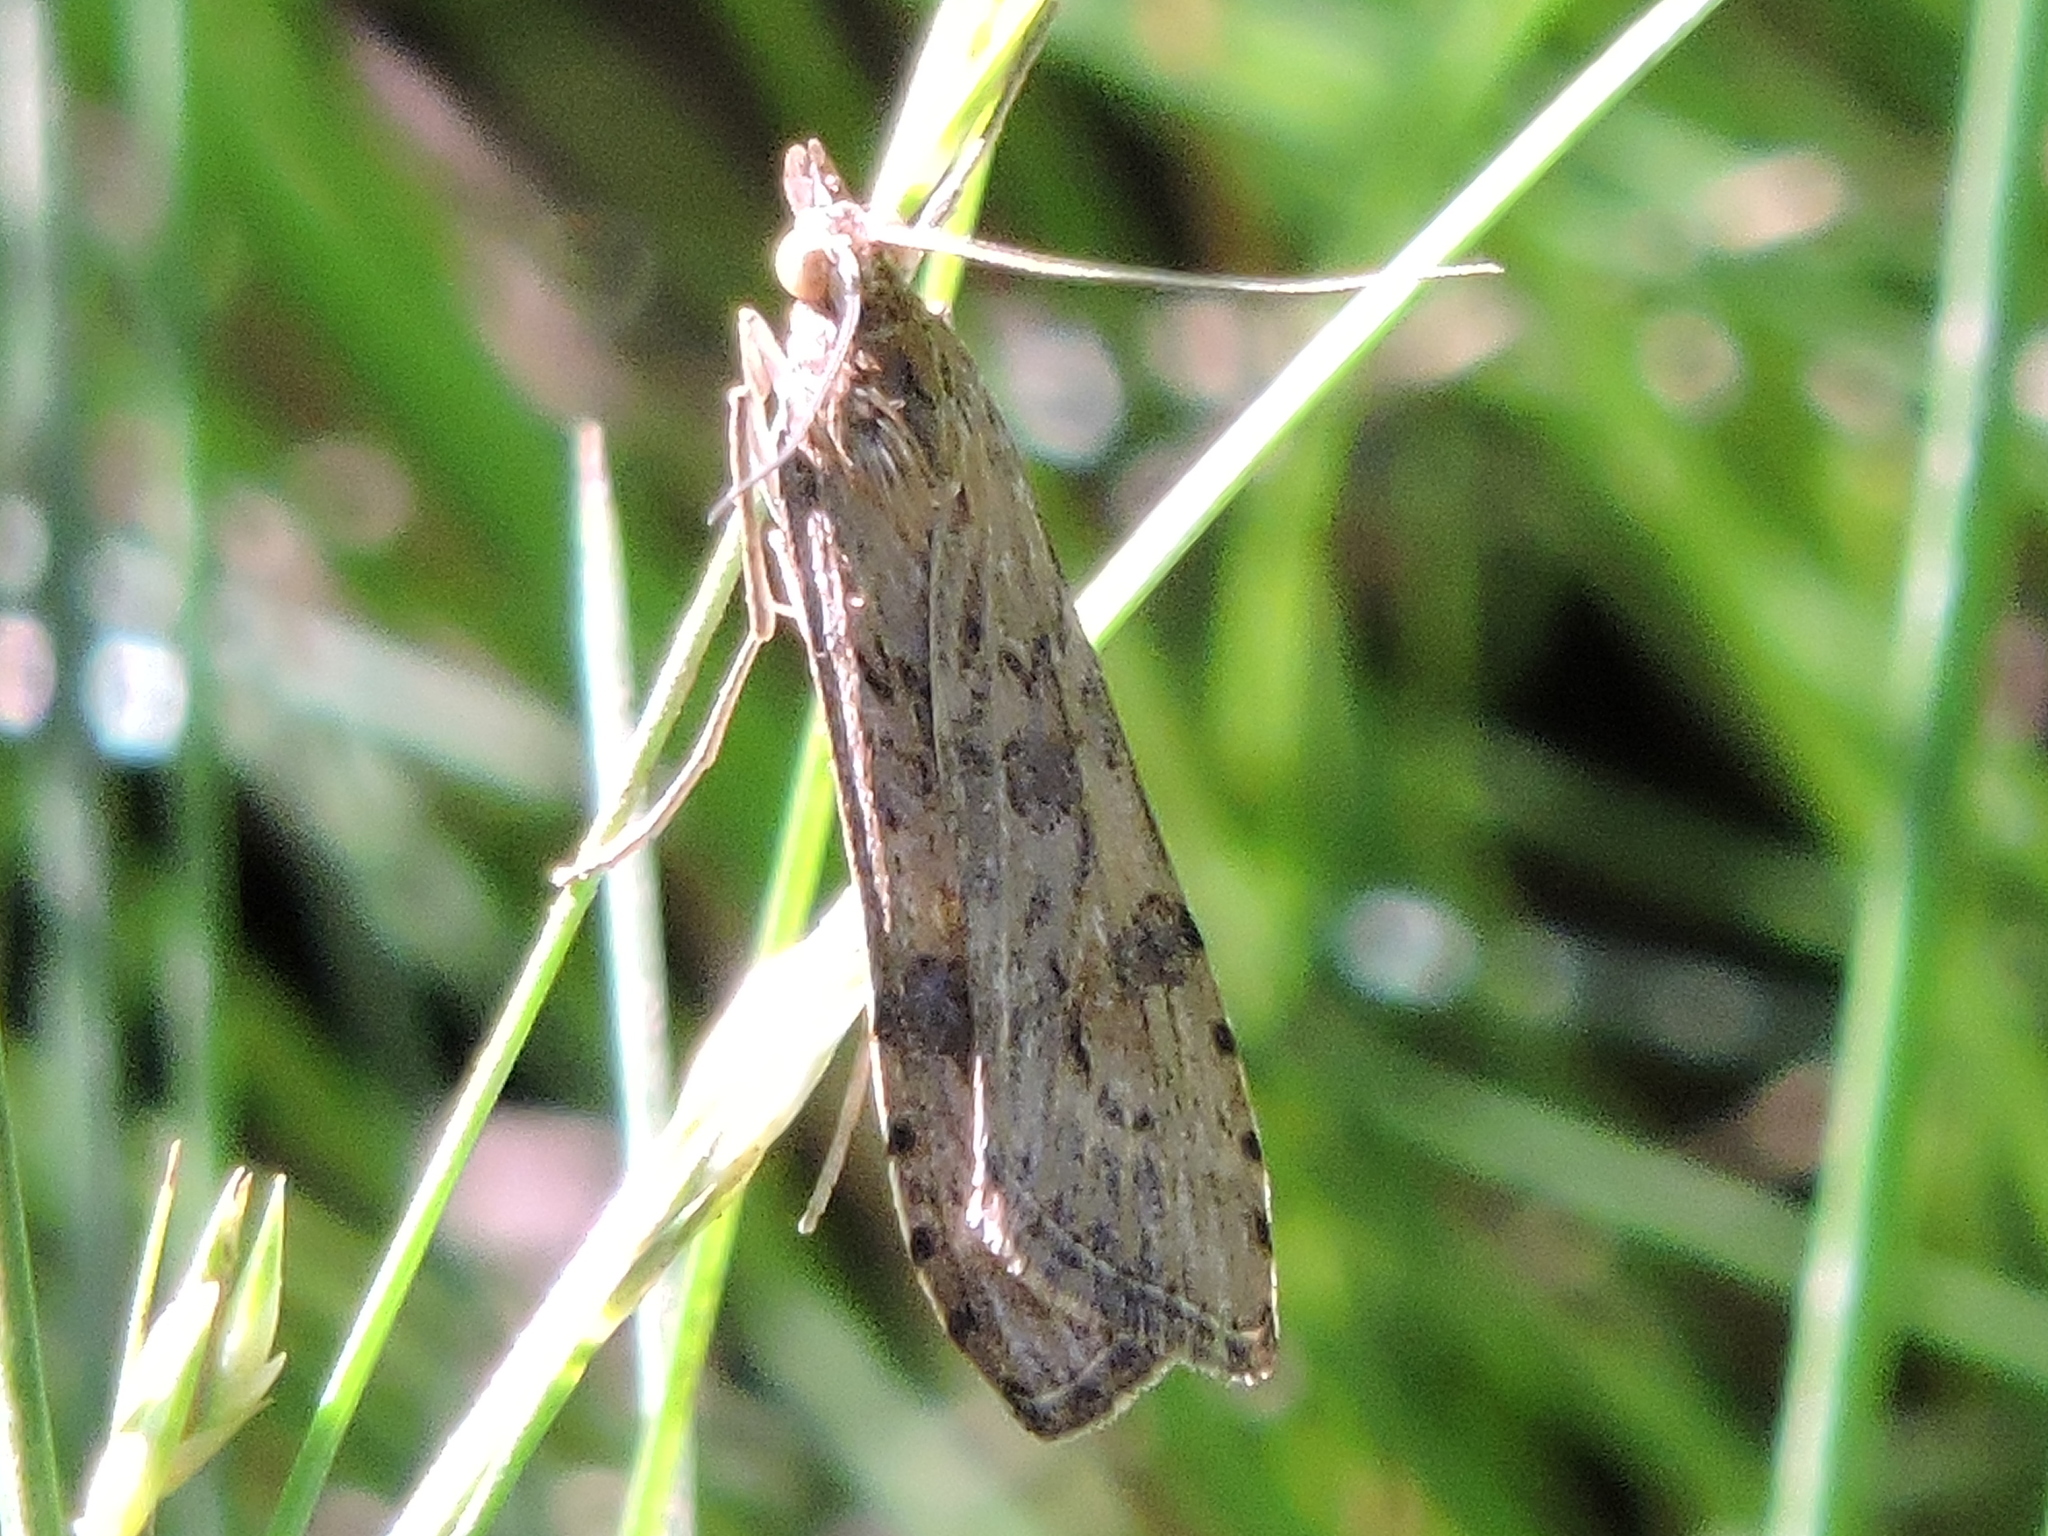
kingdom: Animalia
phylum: Arthropoda
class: Insecta
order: Lepidoptera
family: Crambidae
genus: Nomophila
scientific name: Nomophila nearctica
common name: American rush veneer
